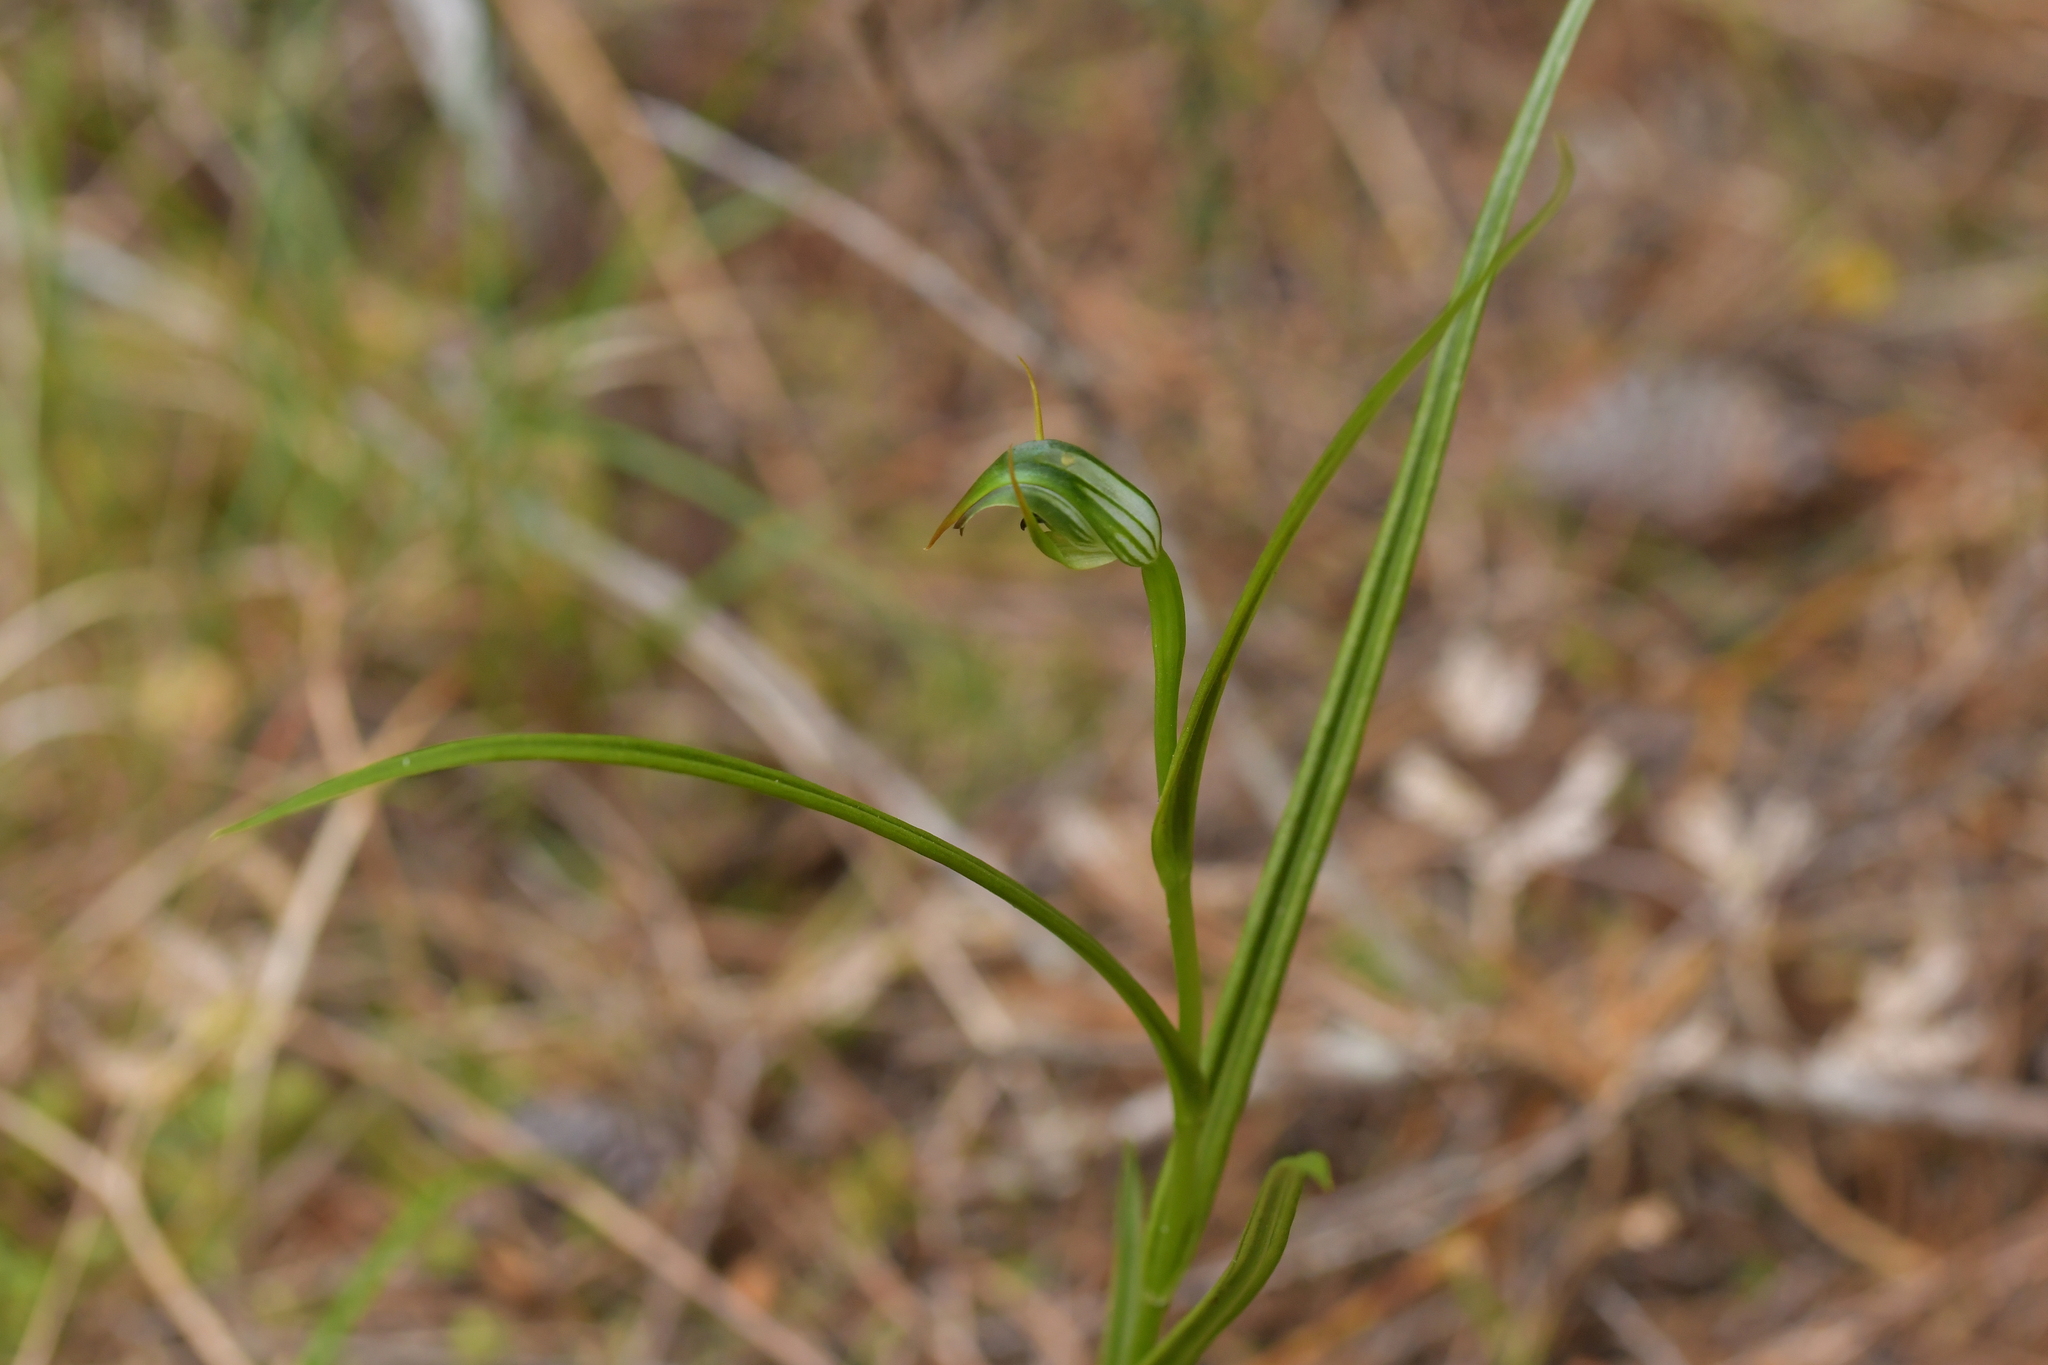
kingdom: Plantae
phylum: Tracheophyta
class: Liliopsida
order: Asparagales
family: Orchidaceae
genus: Pterostylis
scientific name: Pterostylis graminea
